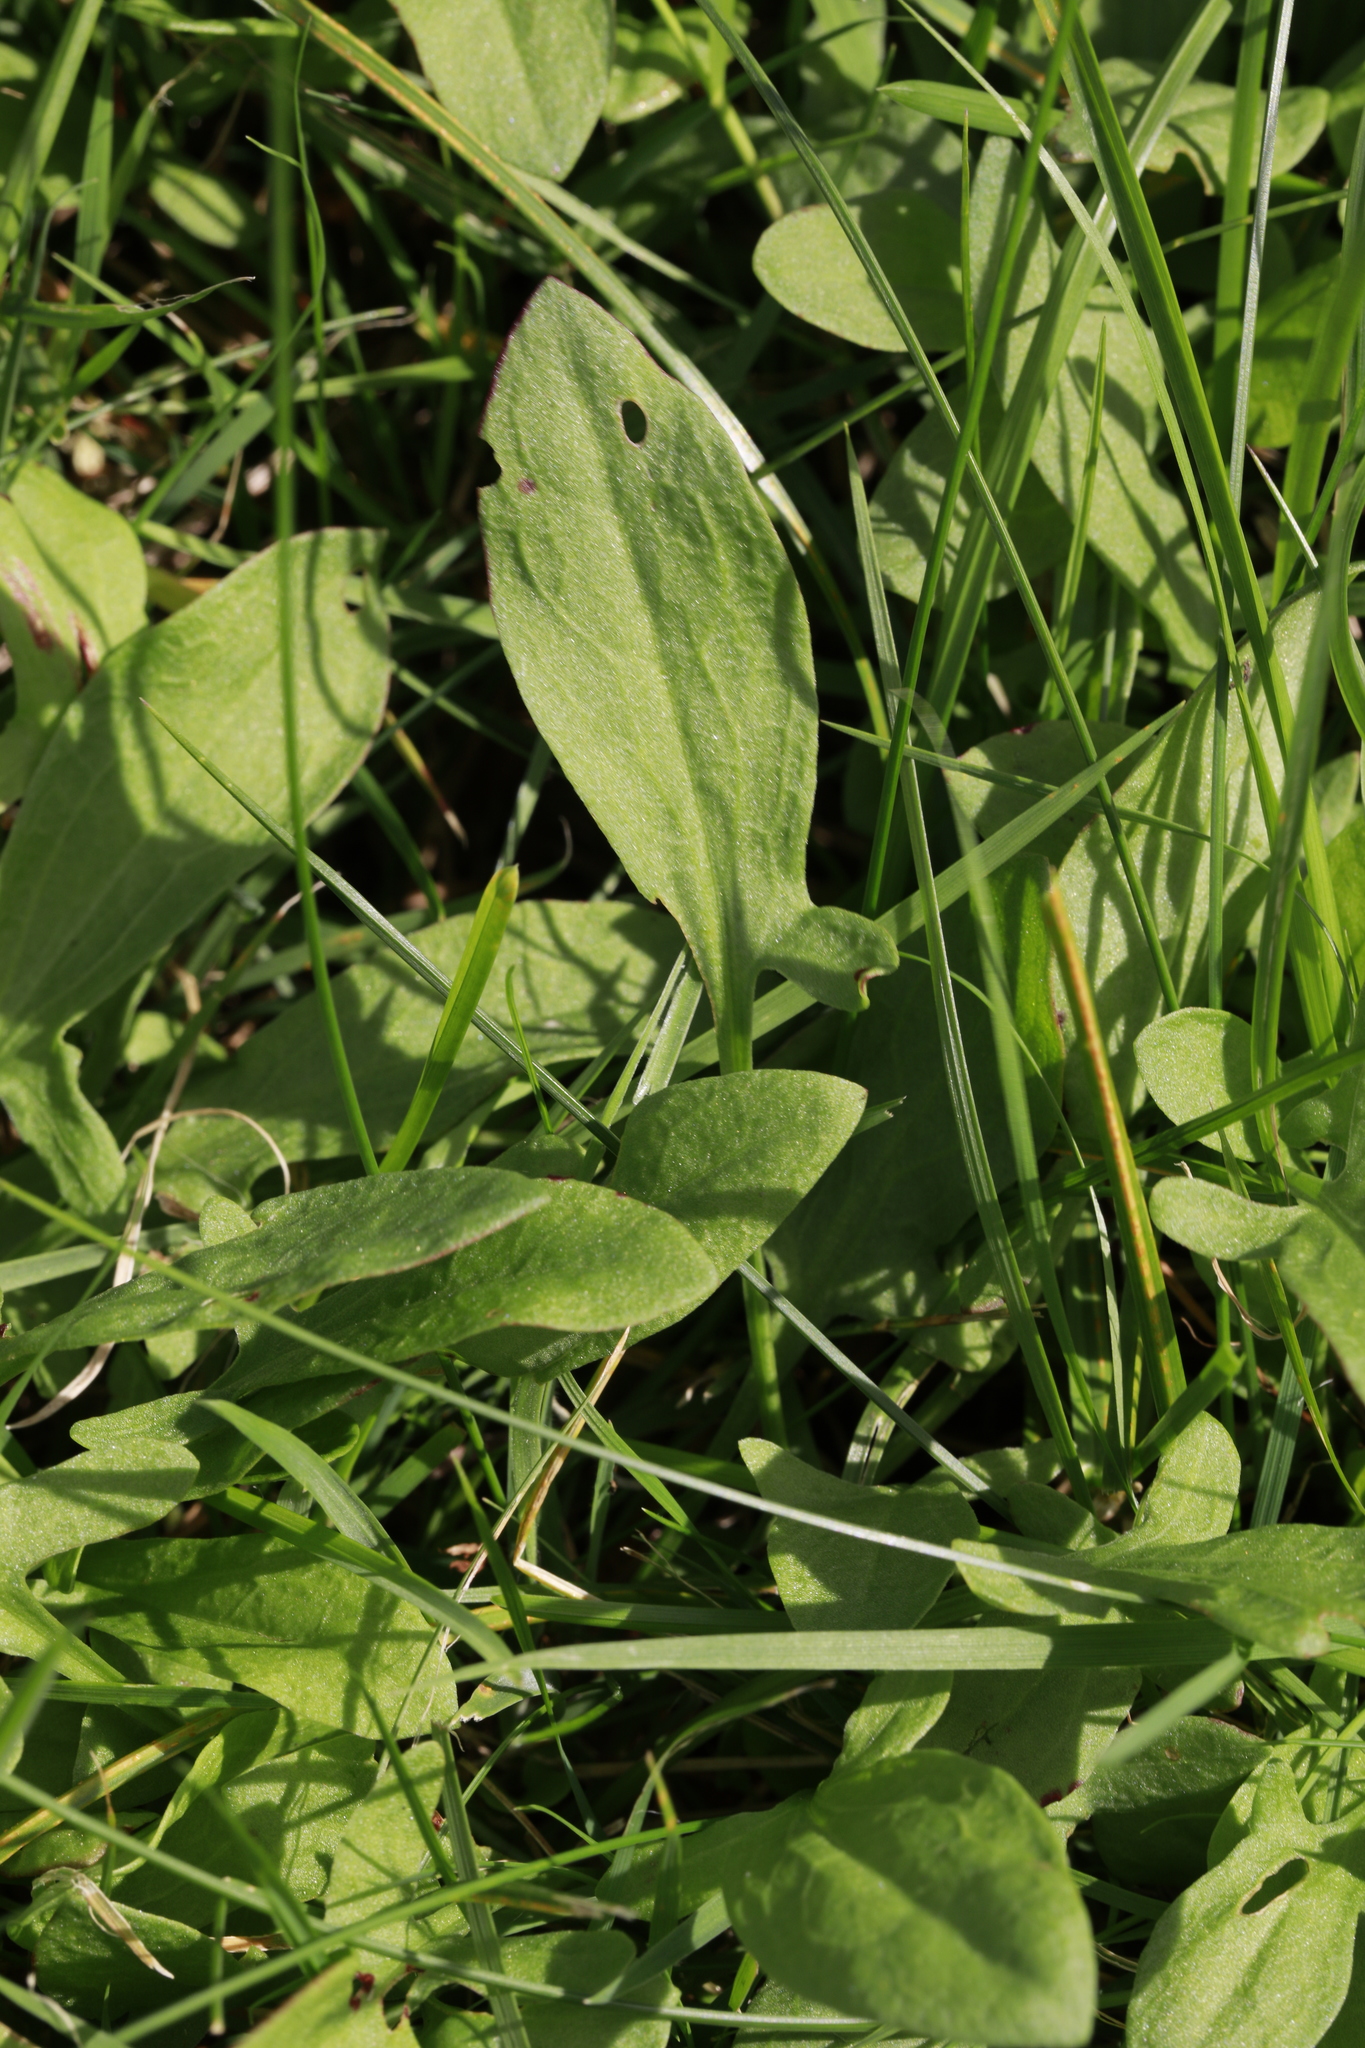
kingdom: Plantae
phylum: Tracheophyta
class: Magnoliopsida
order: Caryophyllales
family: Polygonaceae
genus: Rumex
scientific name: Rumex acetosella
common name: Common sheep sorrel
